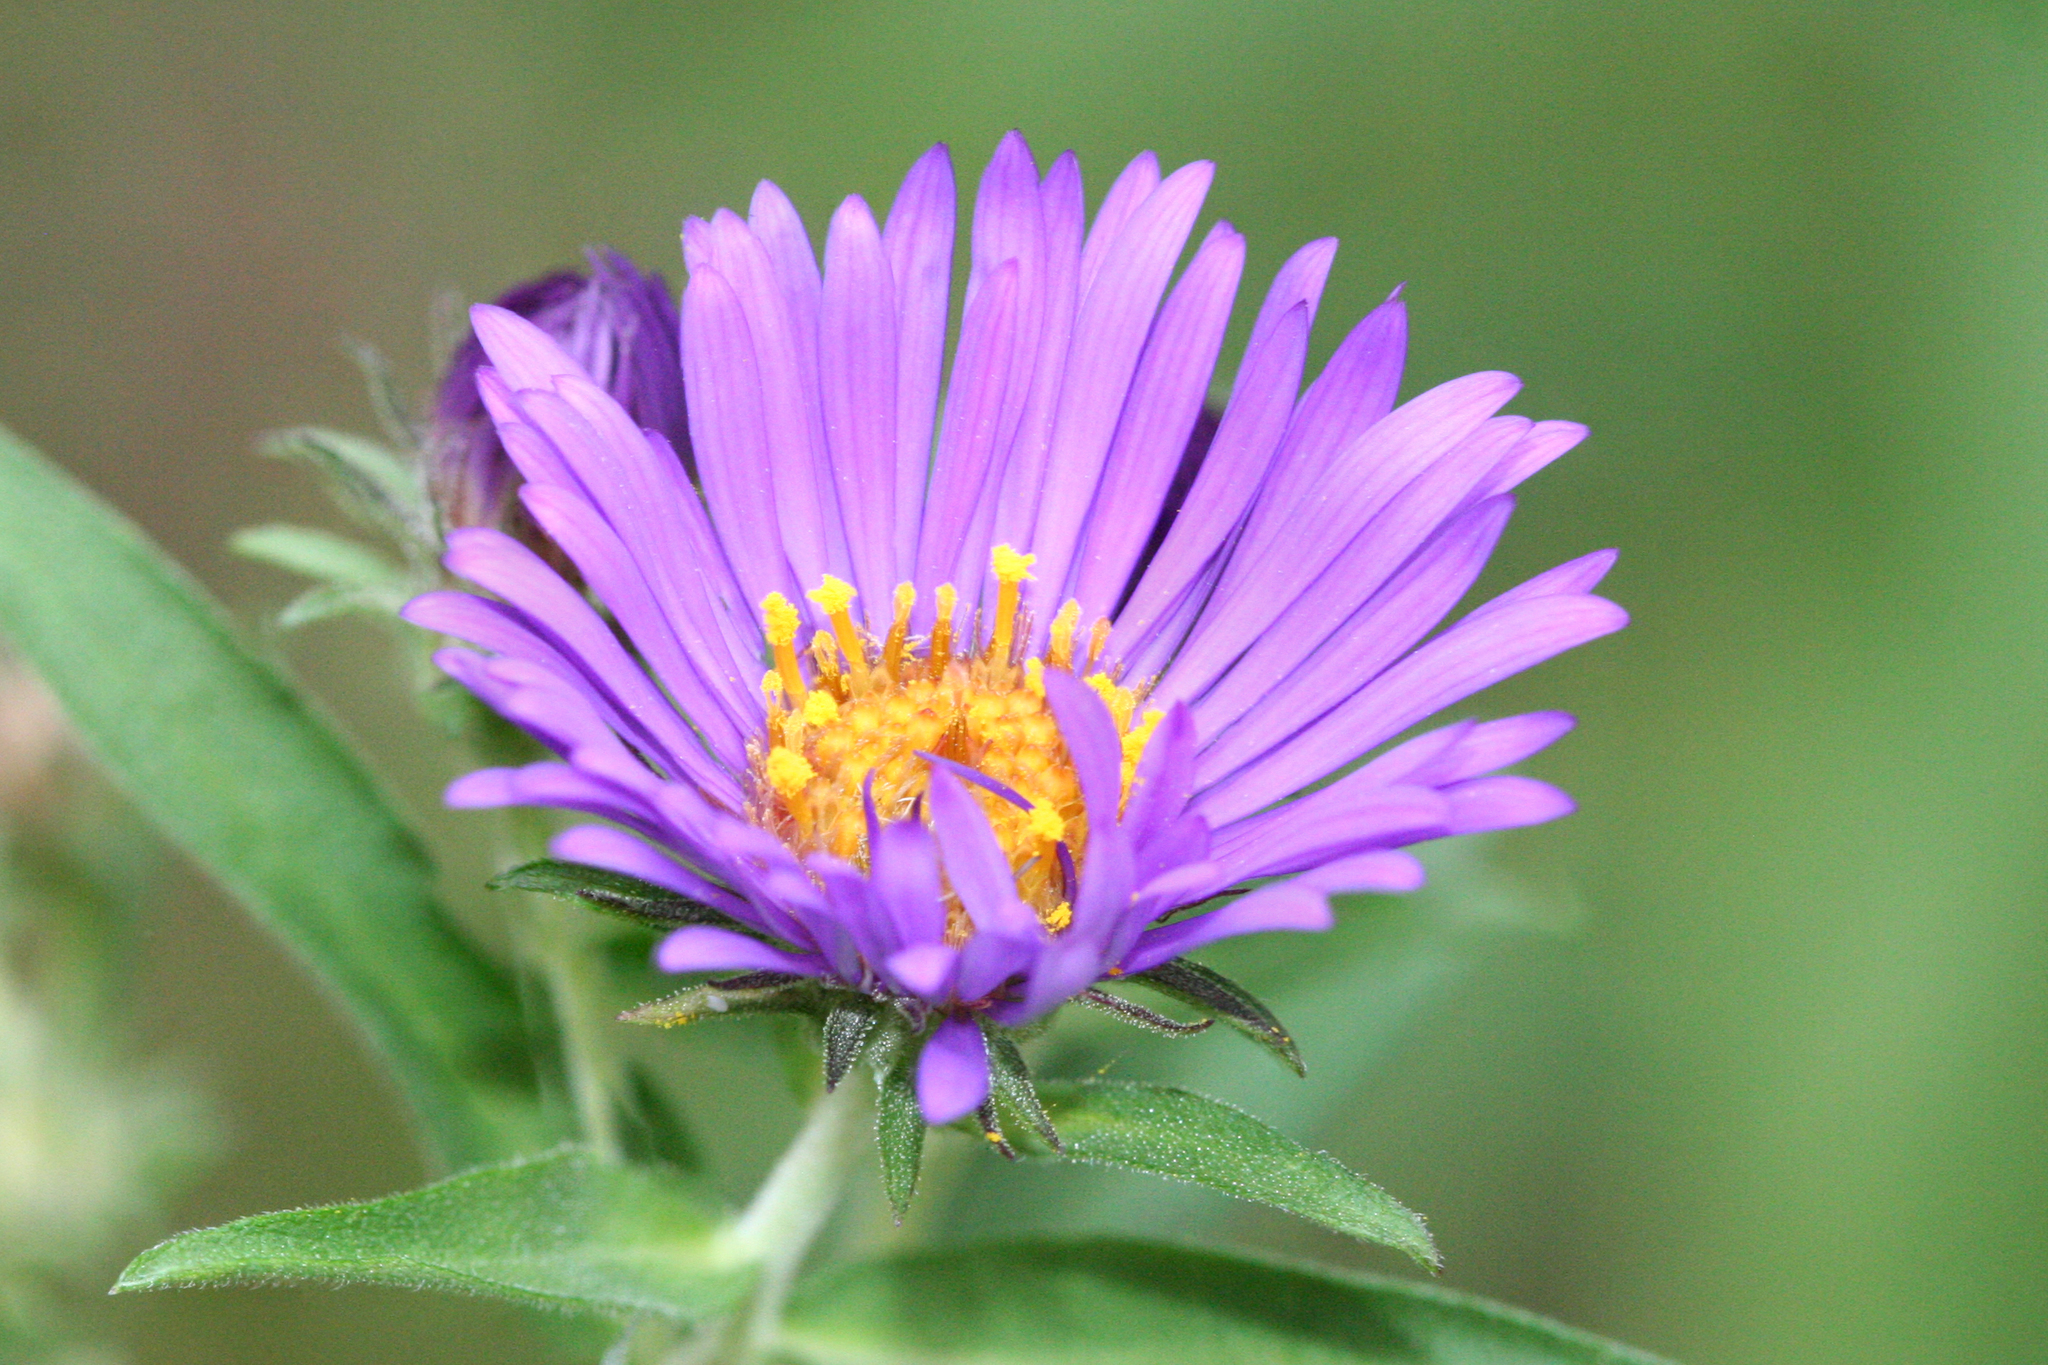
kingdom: Plantae
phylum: Tracheophyta
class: Magnoliopsida
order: Asterales
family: Asteraceae
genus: Symphyotrichum
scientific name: Symphyotrichum novae-angliae
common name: Michaelmas daisy
